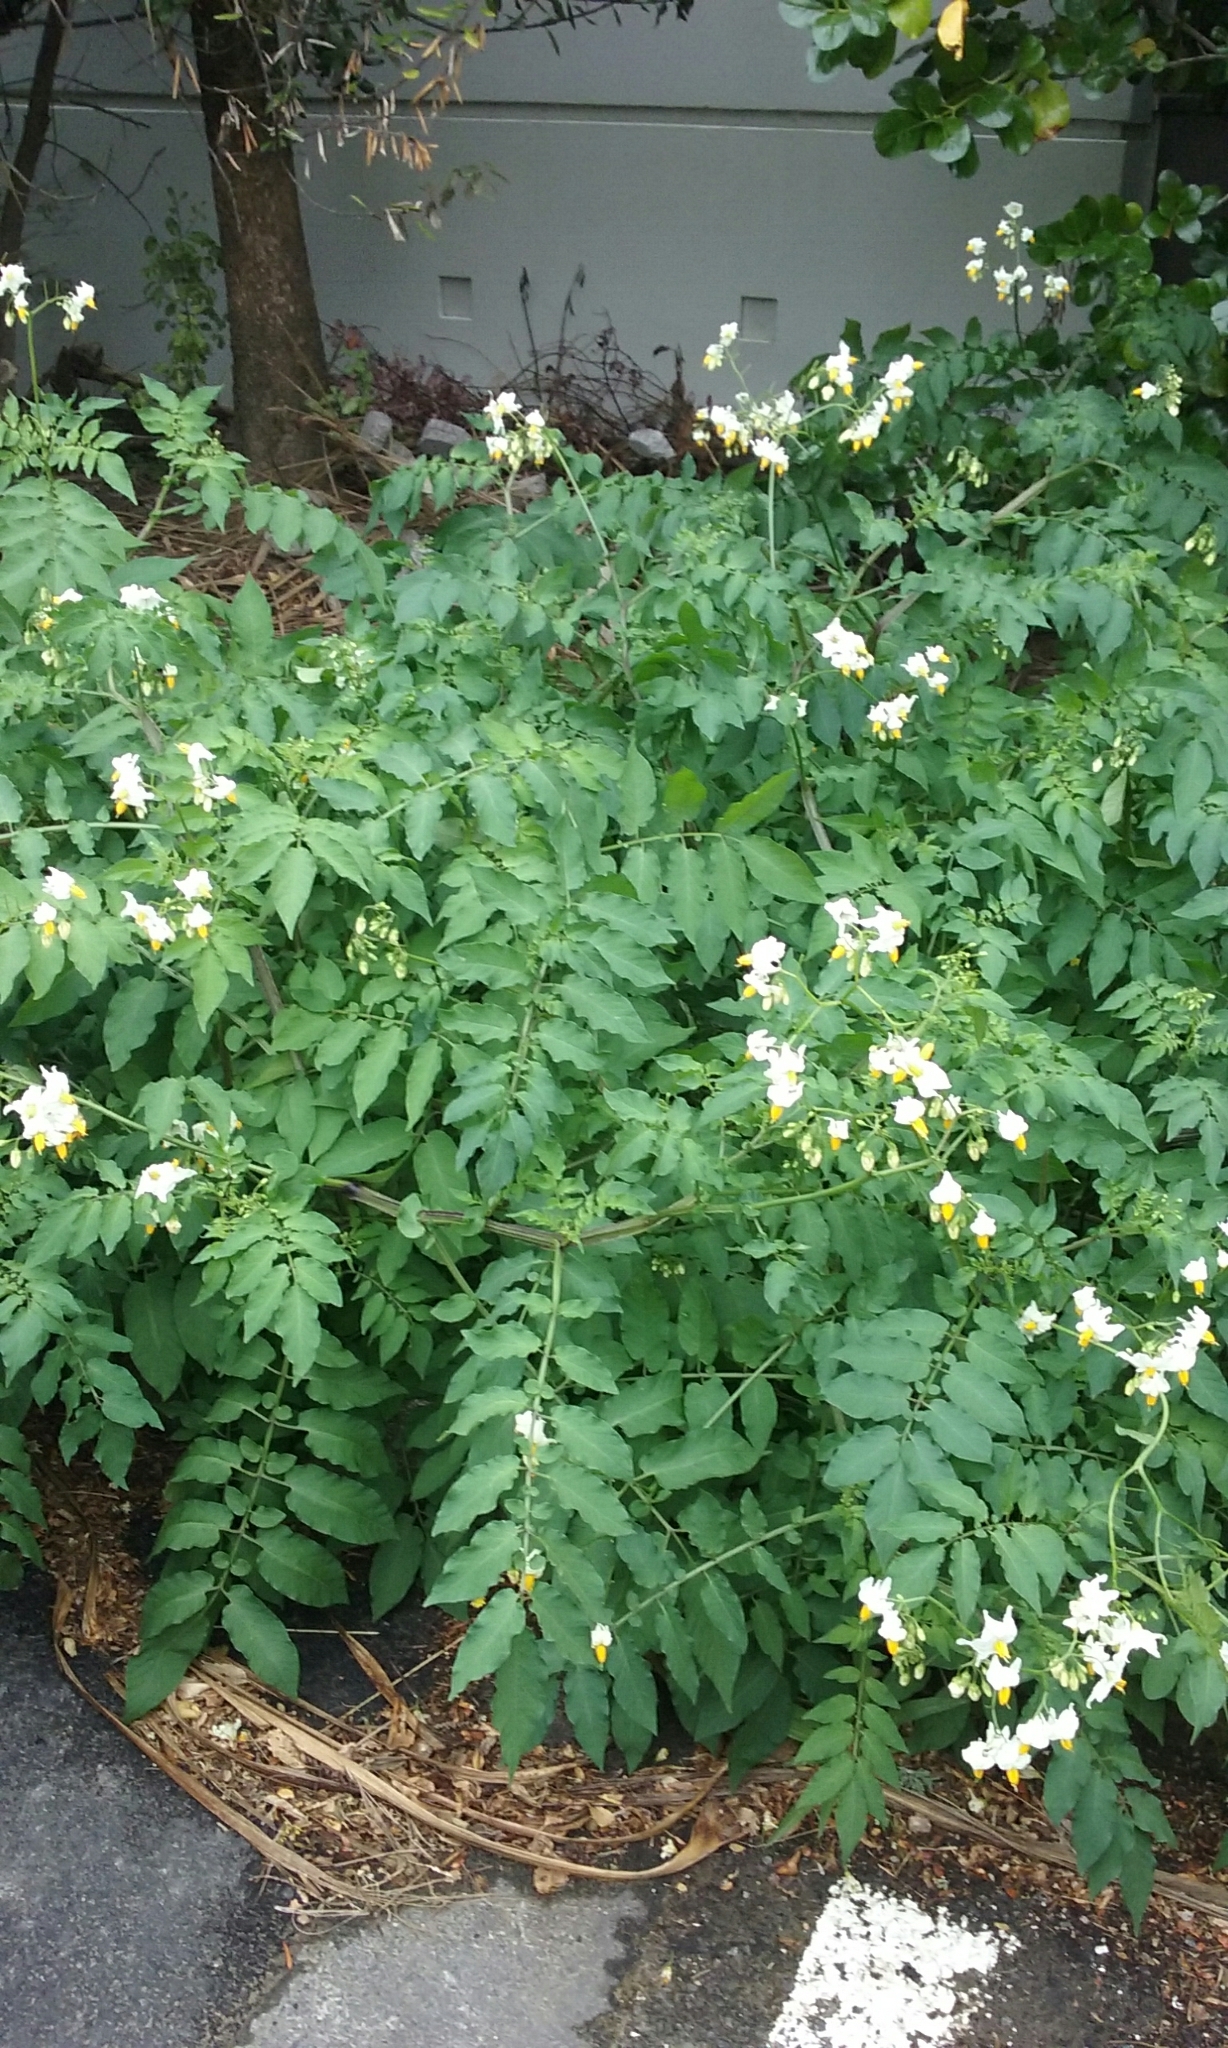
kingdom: Plantae
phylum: Tracheophyta
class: Magnoliopsida
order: Solanales
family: Solanaceae
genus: Solanum
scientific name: Solanum chacoense
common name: Chaco potato
